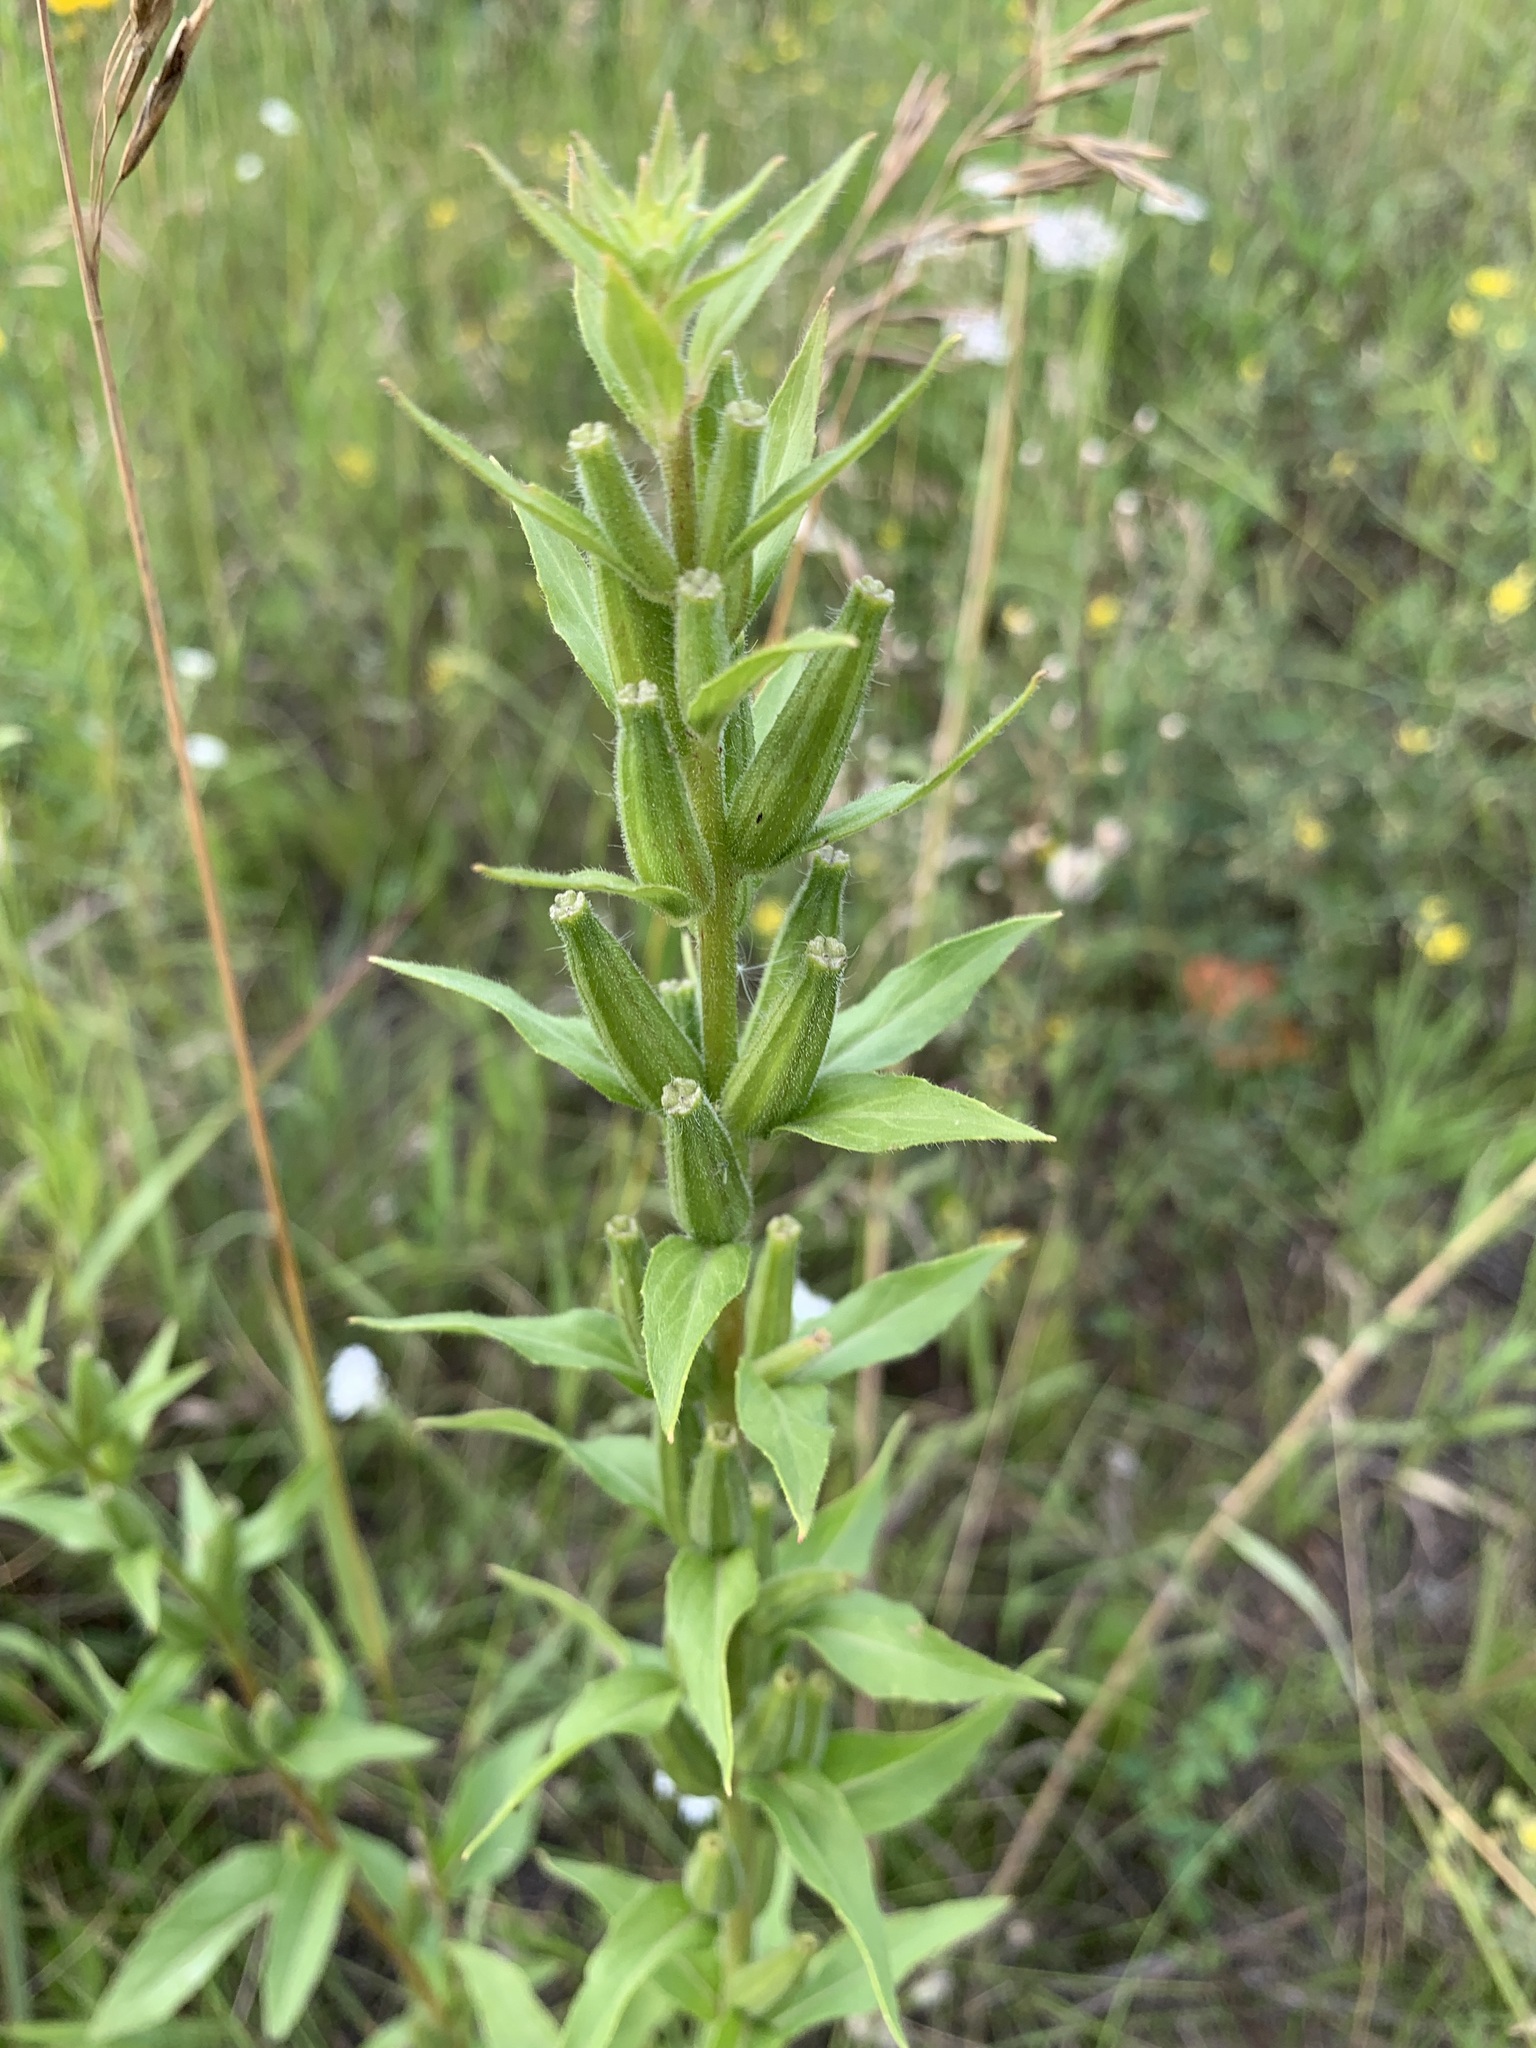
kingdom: Plantae
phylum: Tracheophyta
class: Magnoliopsida
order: Myrtales
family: Onagraceae
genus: Oenothera
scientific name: Oenothera rubricaulis
